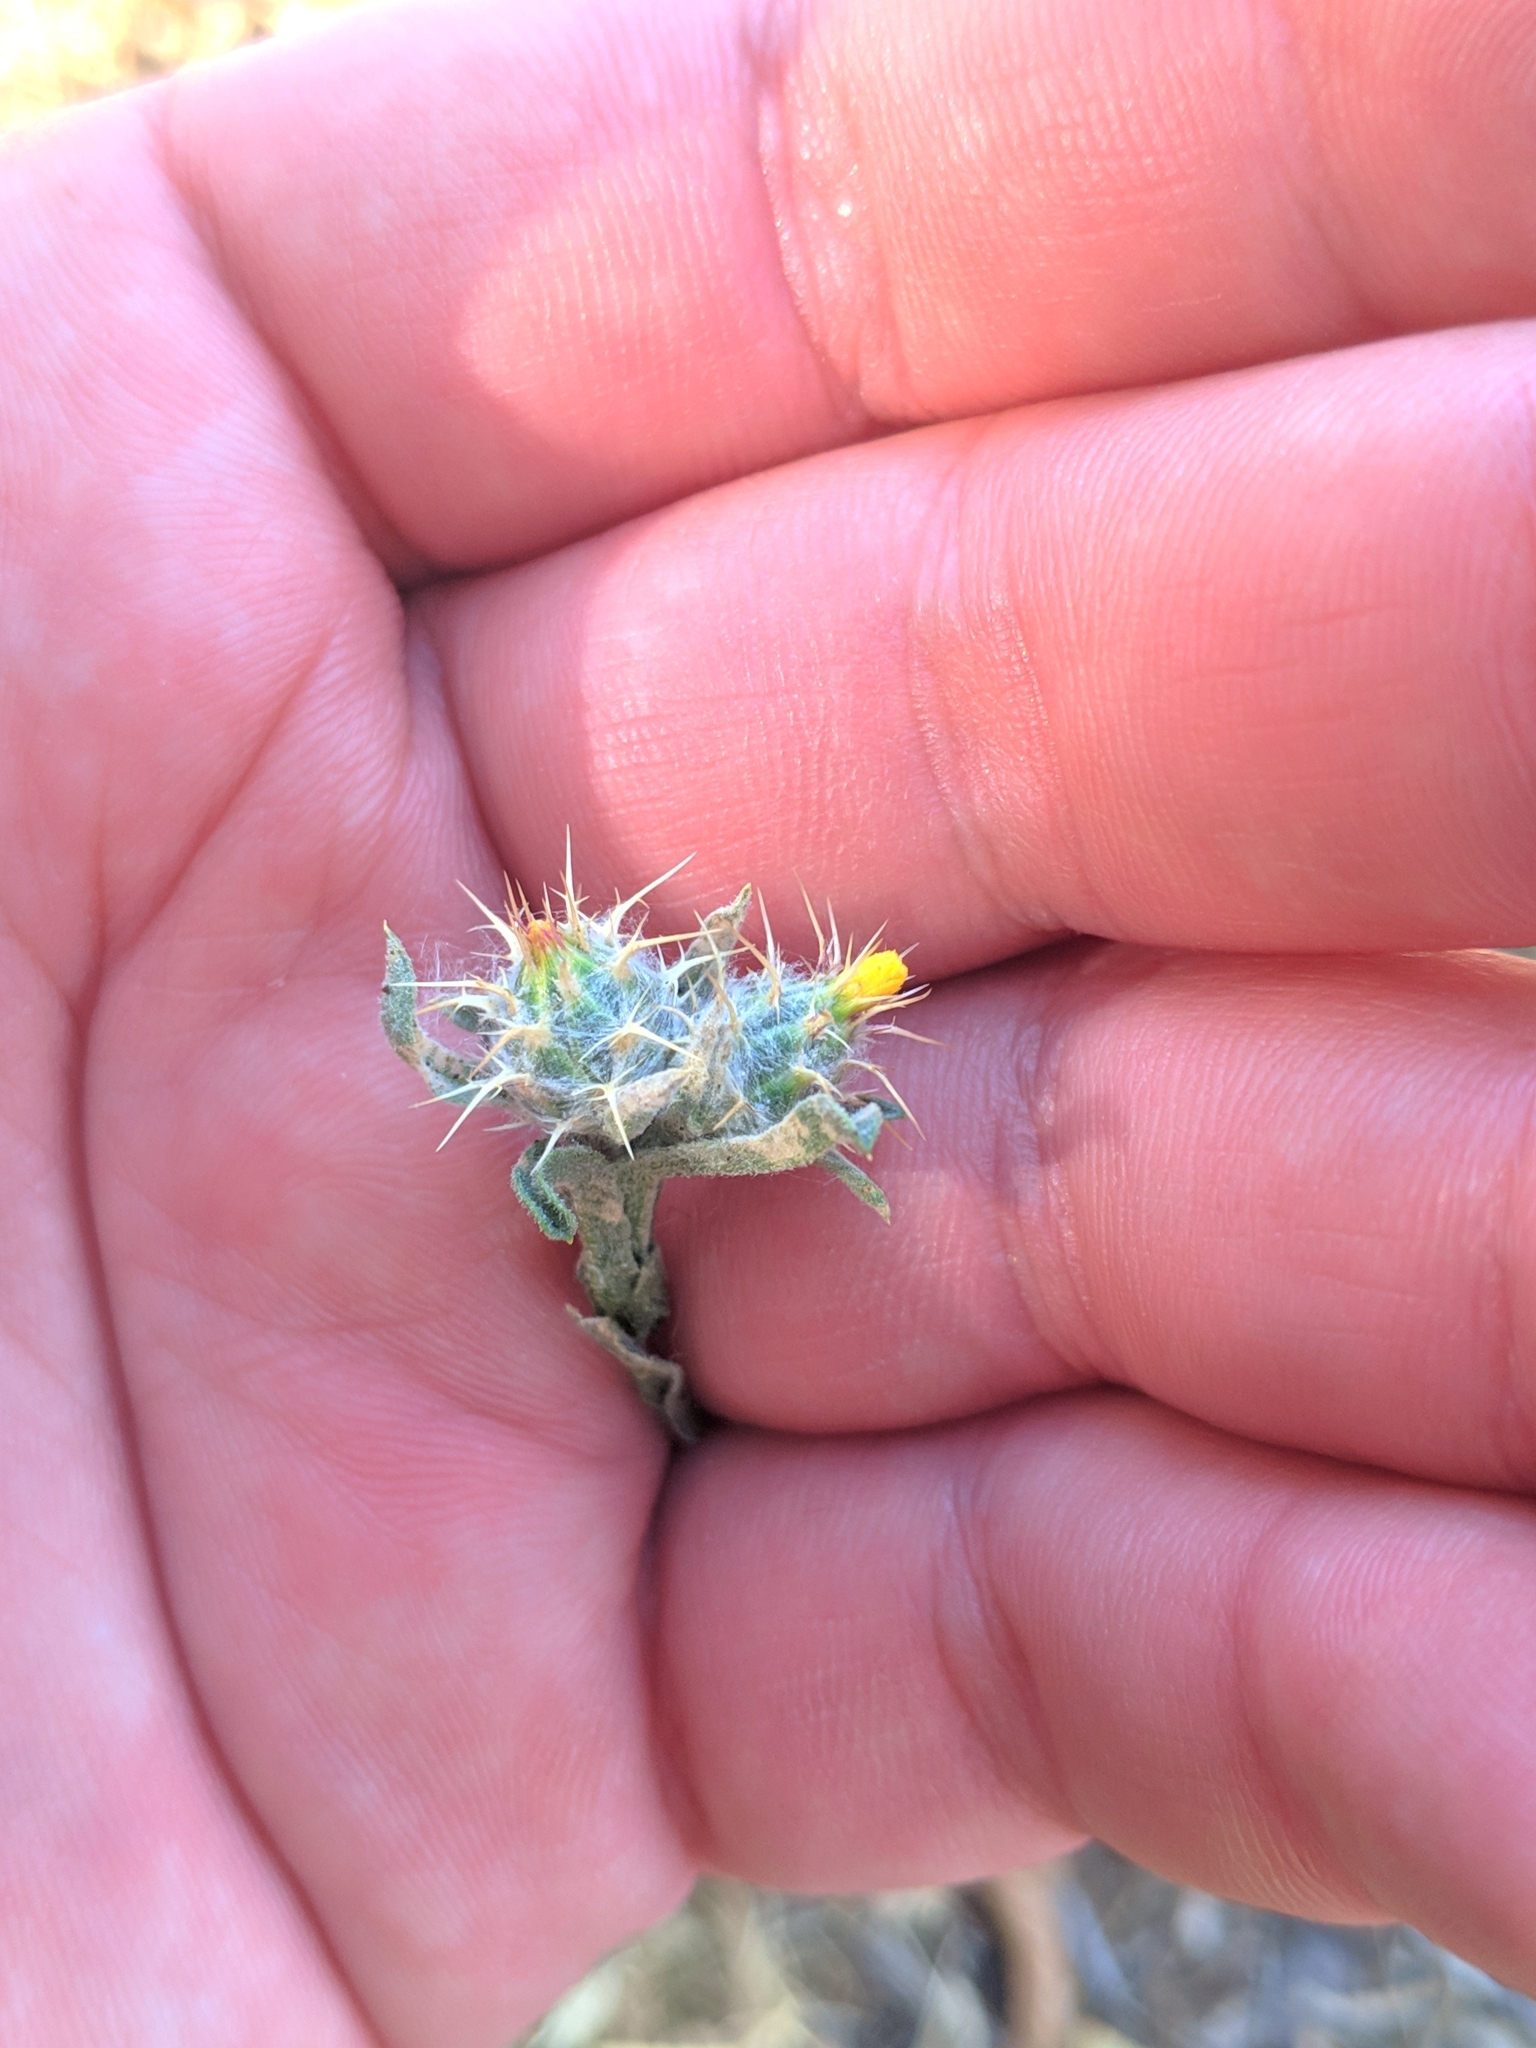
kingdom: Plantae
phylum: Tracheophyta
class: Magnoliopsida
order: Asterales
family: Asteraceae
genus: Centaurea
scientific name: Centaurea melitensis
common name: Maltese star-thistle
